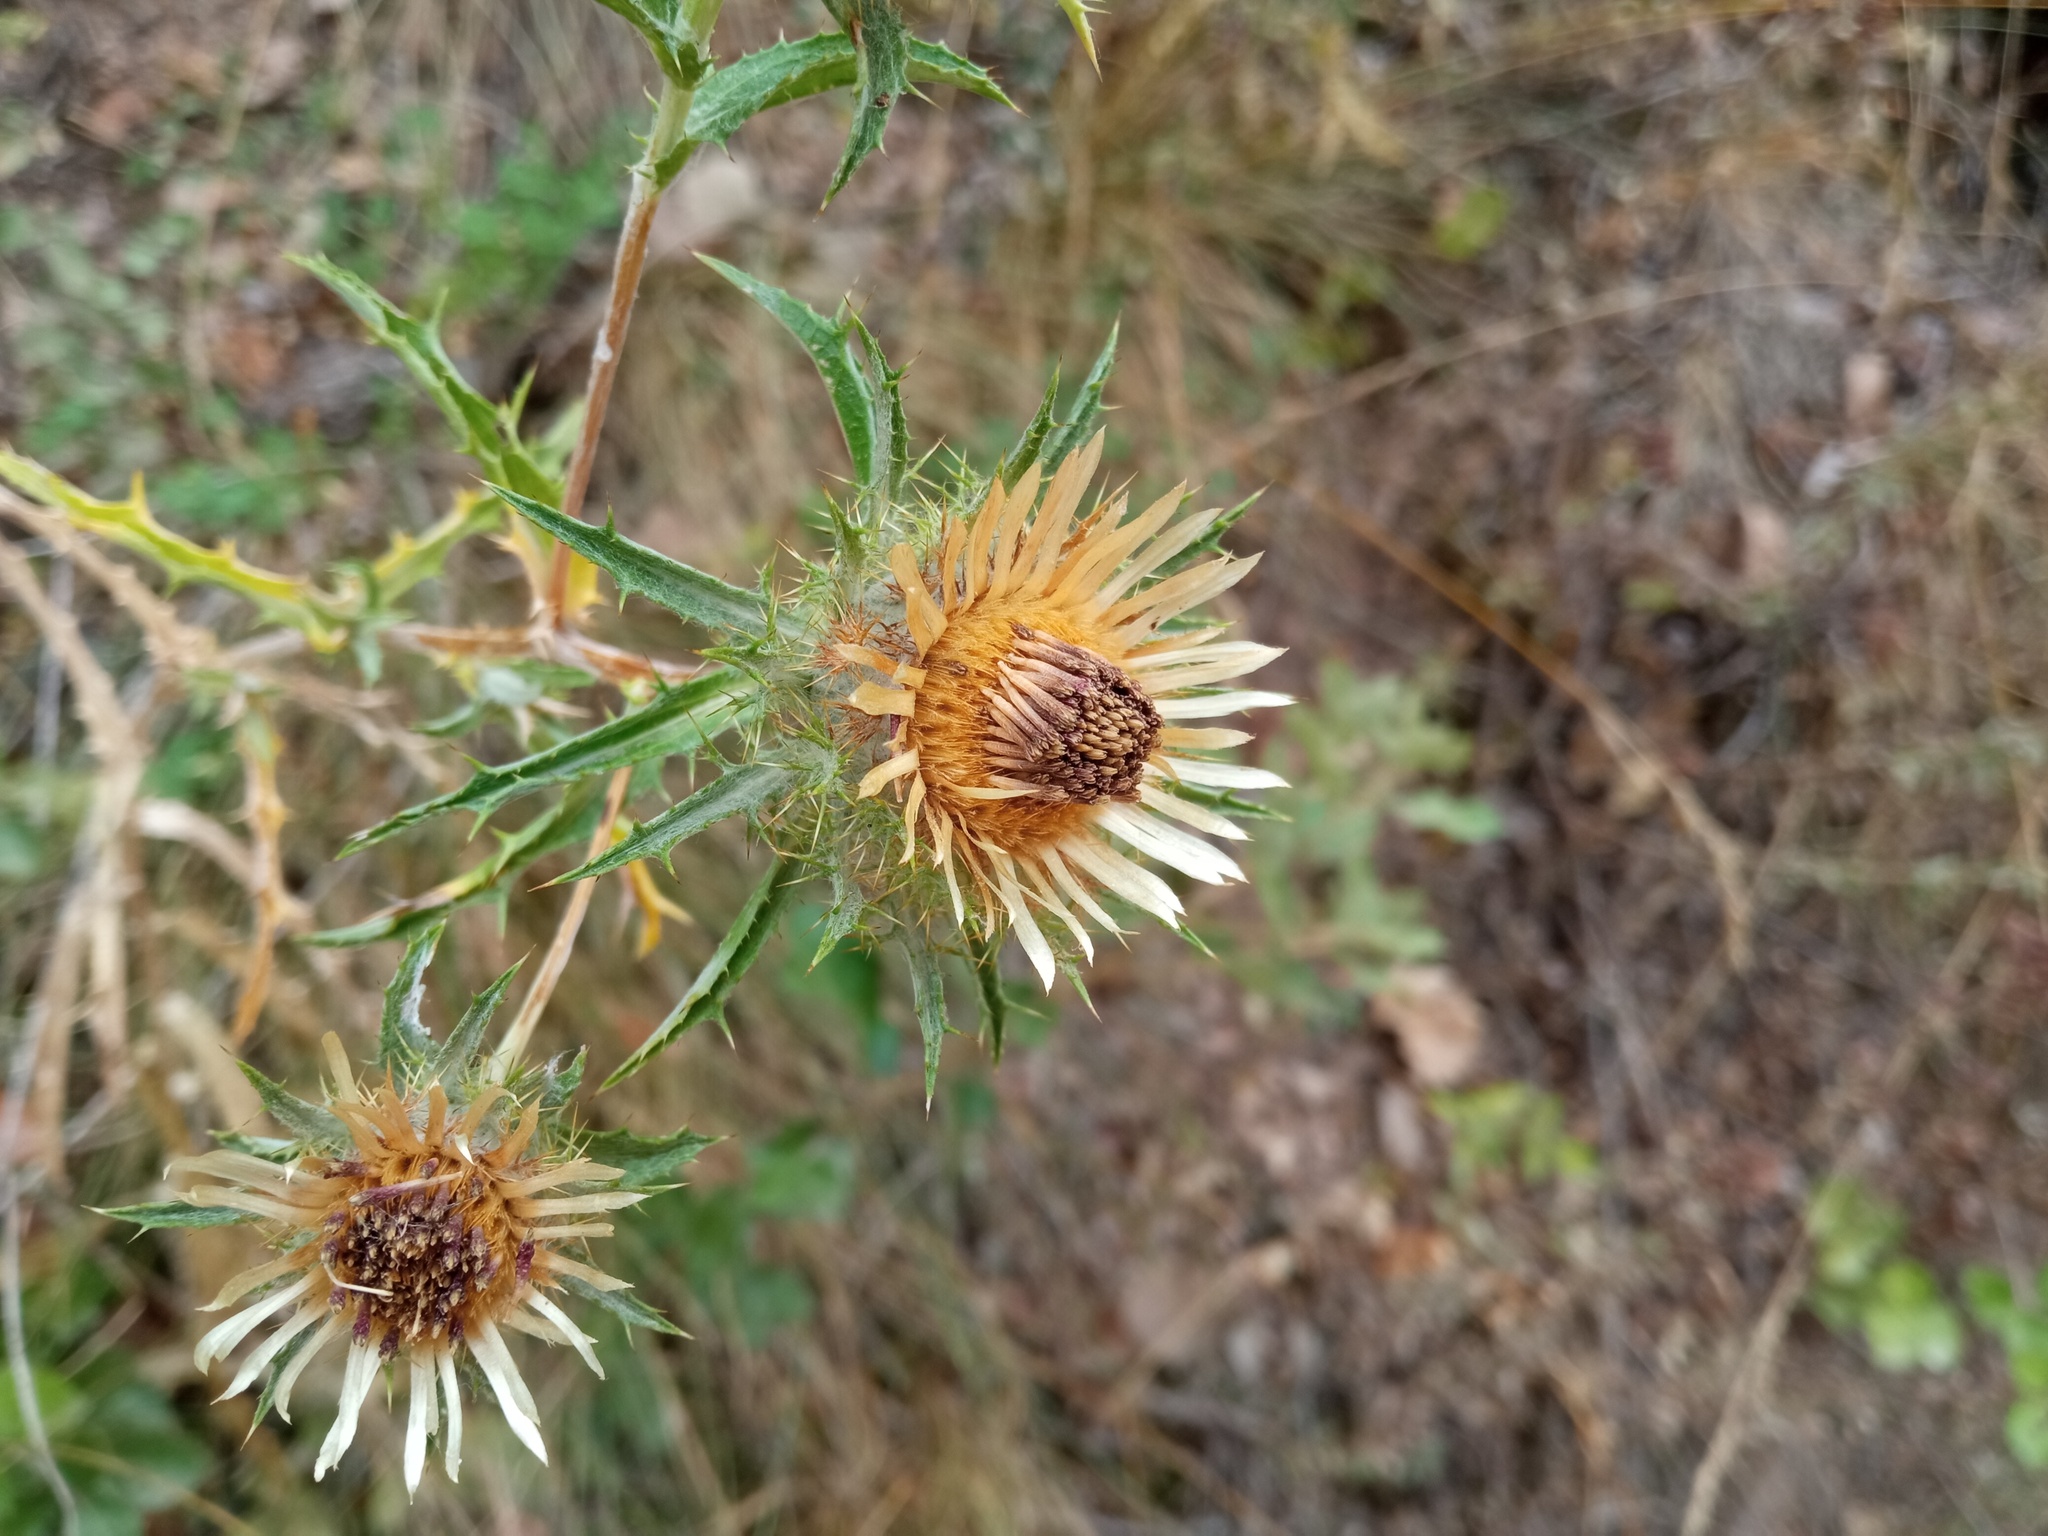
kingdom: Plantae
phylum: Tracheophyta
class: Magnoliopsida
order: Asterales
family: Asteraceae
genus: Carlina
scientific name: Carlina vulgaris
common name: Carline thistle
